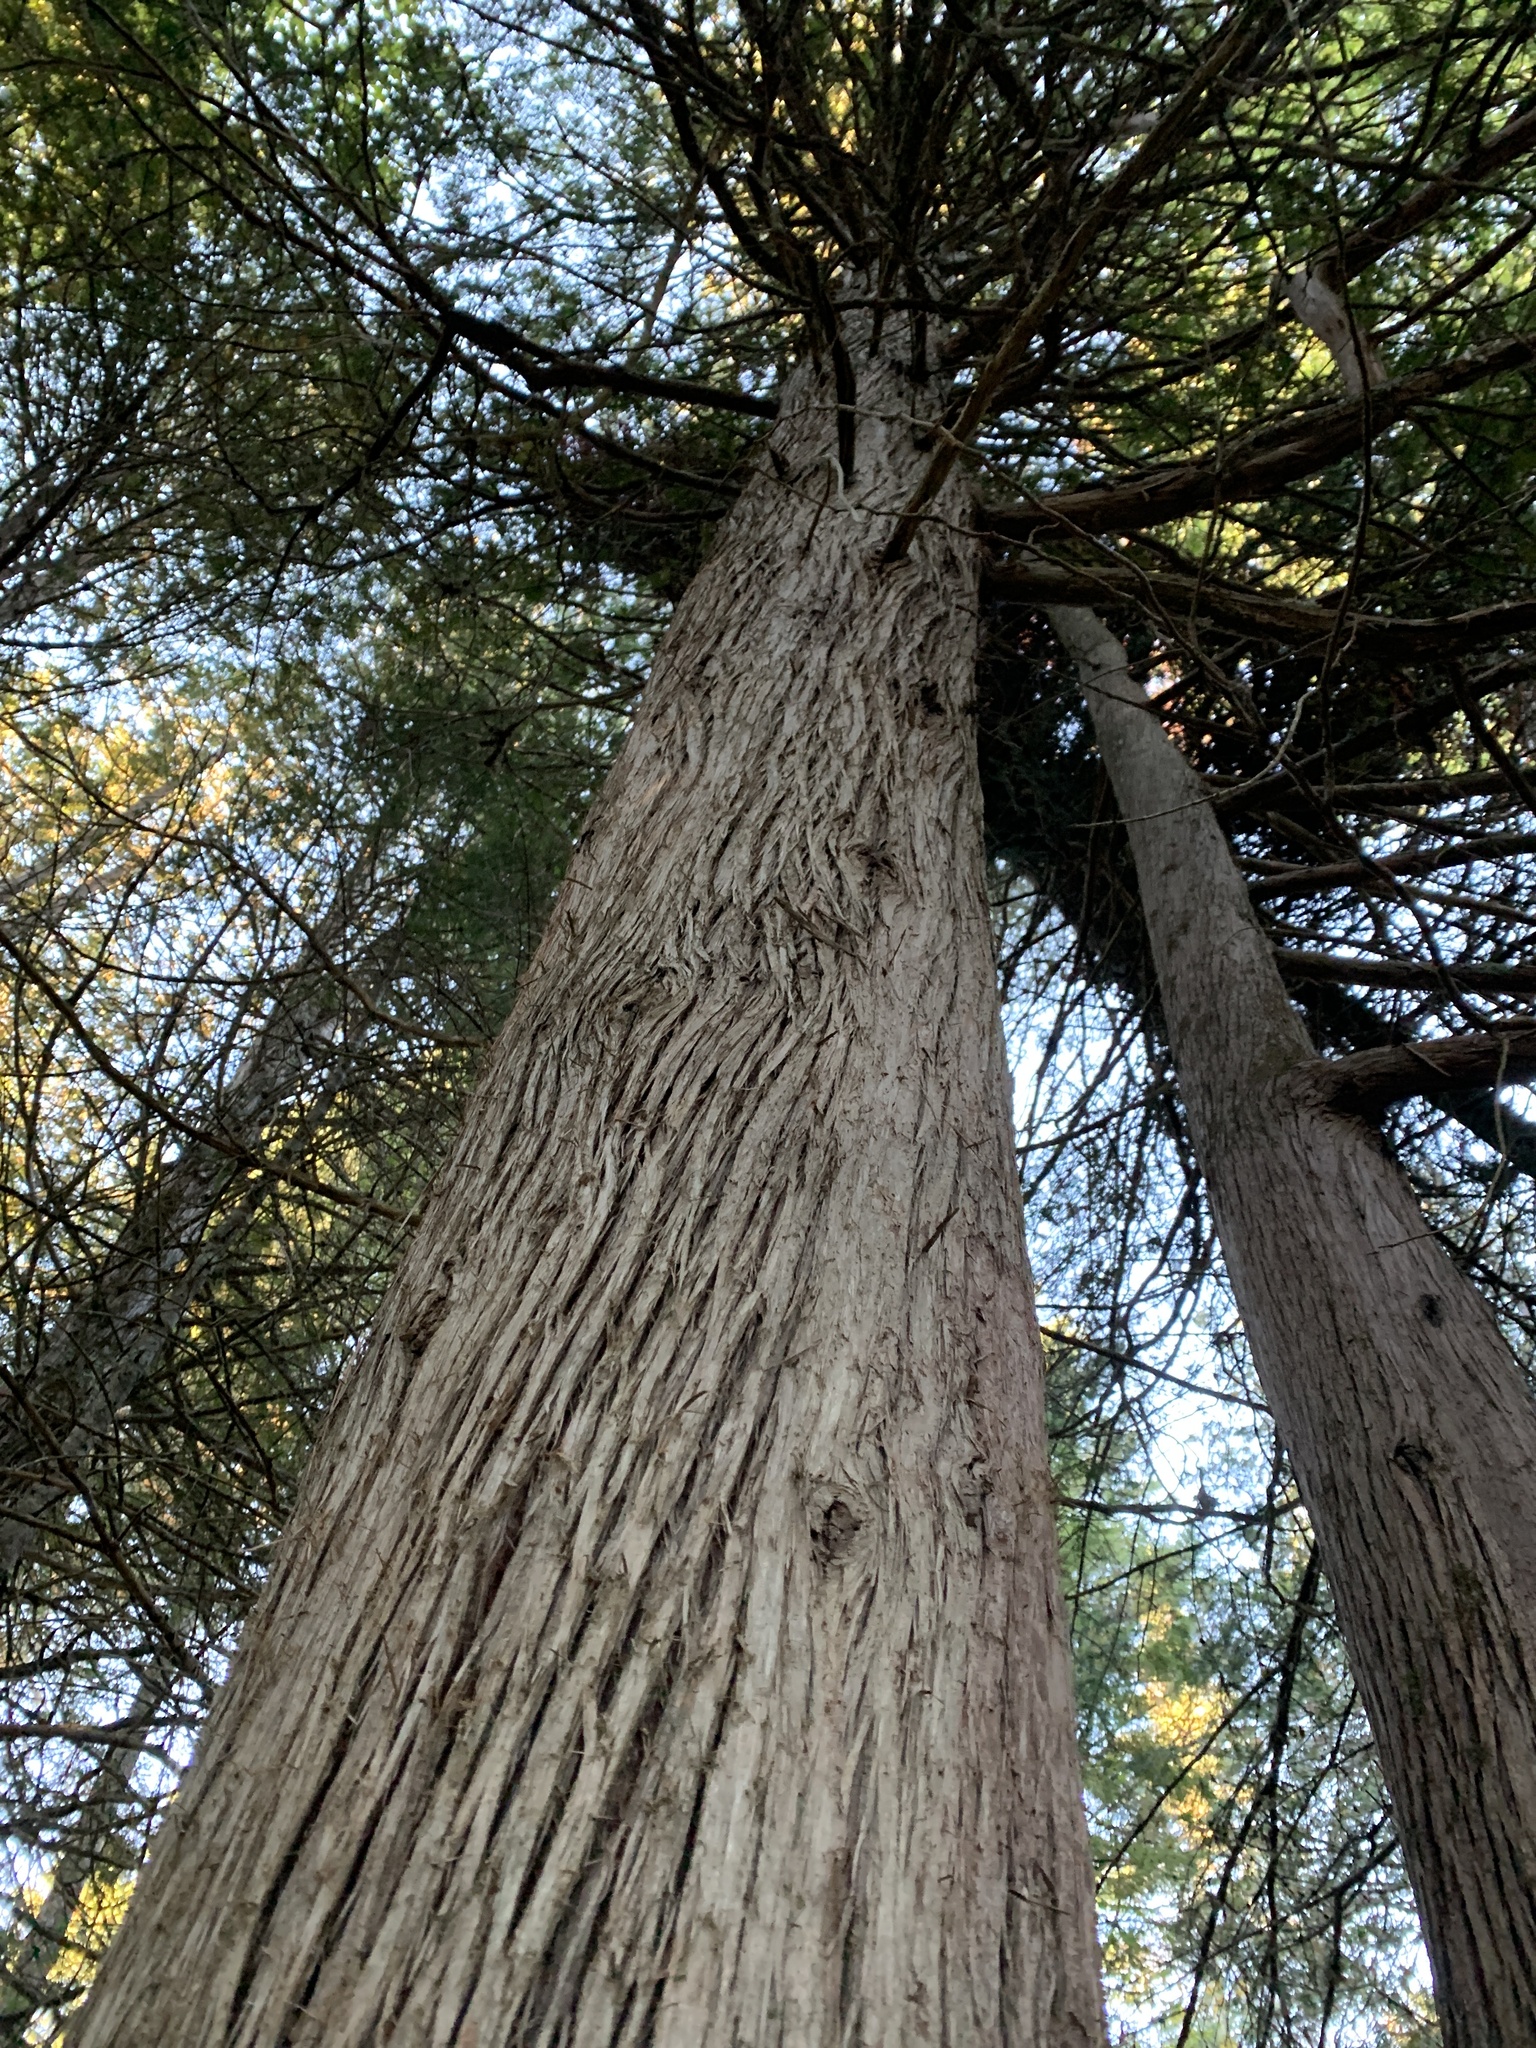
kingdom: Plantae
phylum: Tracheophyta
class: Pinopsida
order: Pinales
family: Cupressaceae
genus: Thuja
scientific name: Thuja occidentalis
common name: Northern white-cedar
